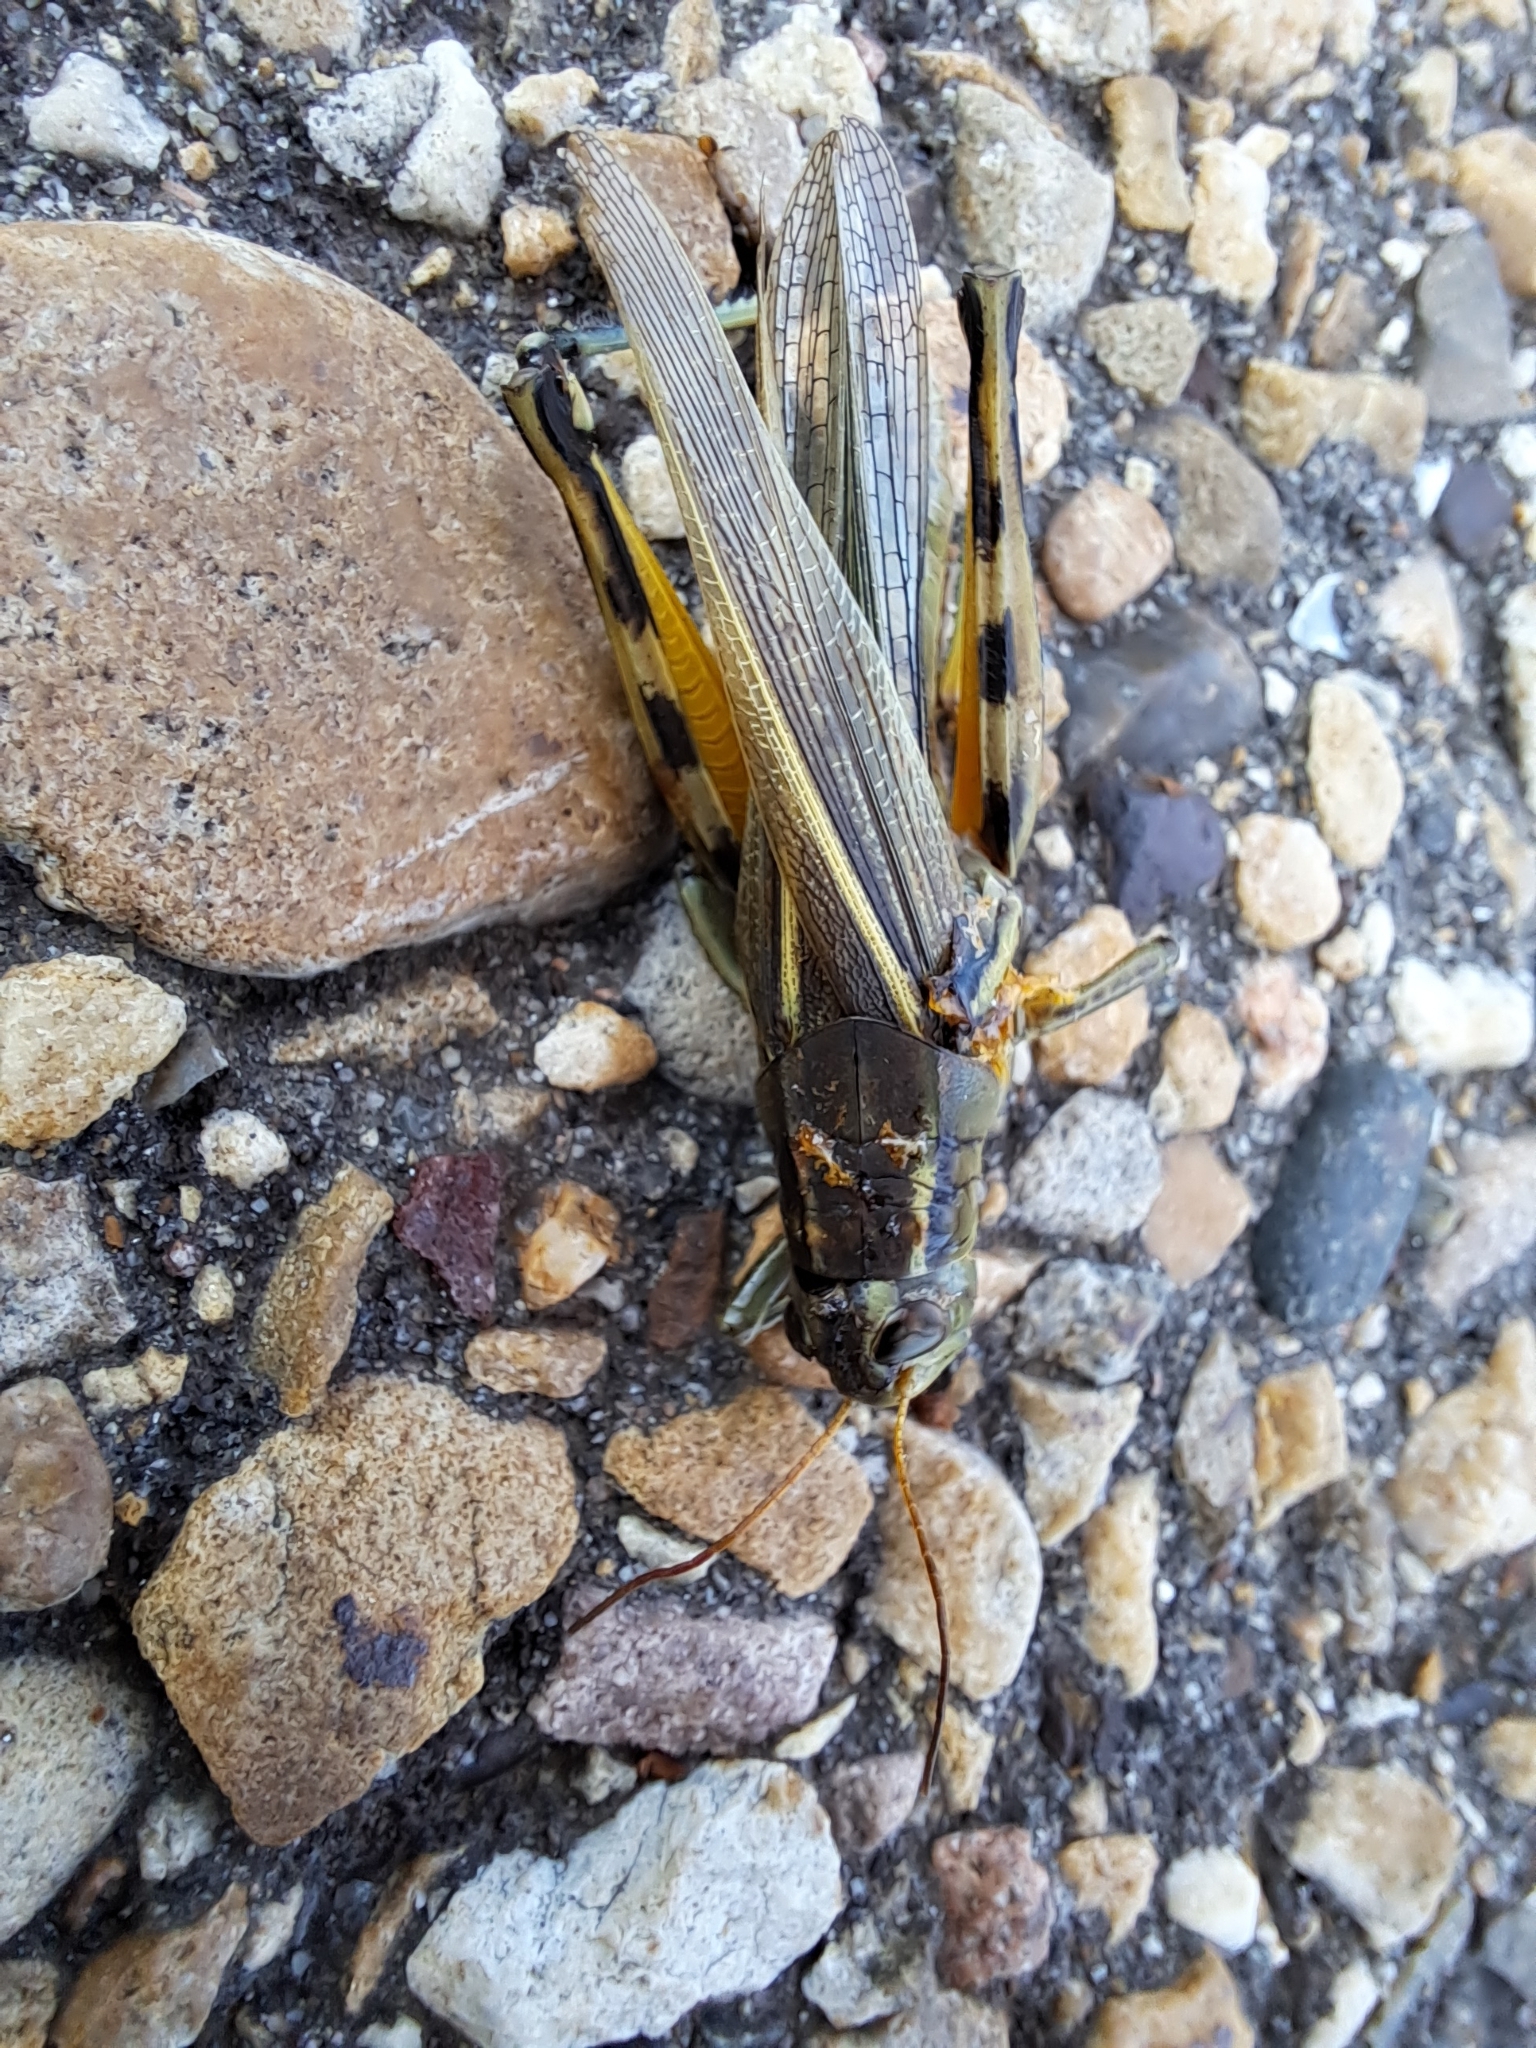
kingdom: Animalia
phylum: Arthropoda
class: Insecta
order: Orthoptera
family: Acrididae
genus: Melanoplus
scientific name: Melanoplus bivittatus
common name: Two-striped grasshopper
